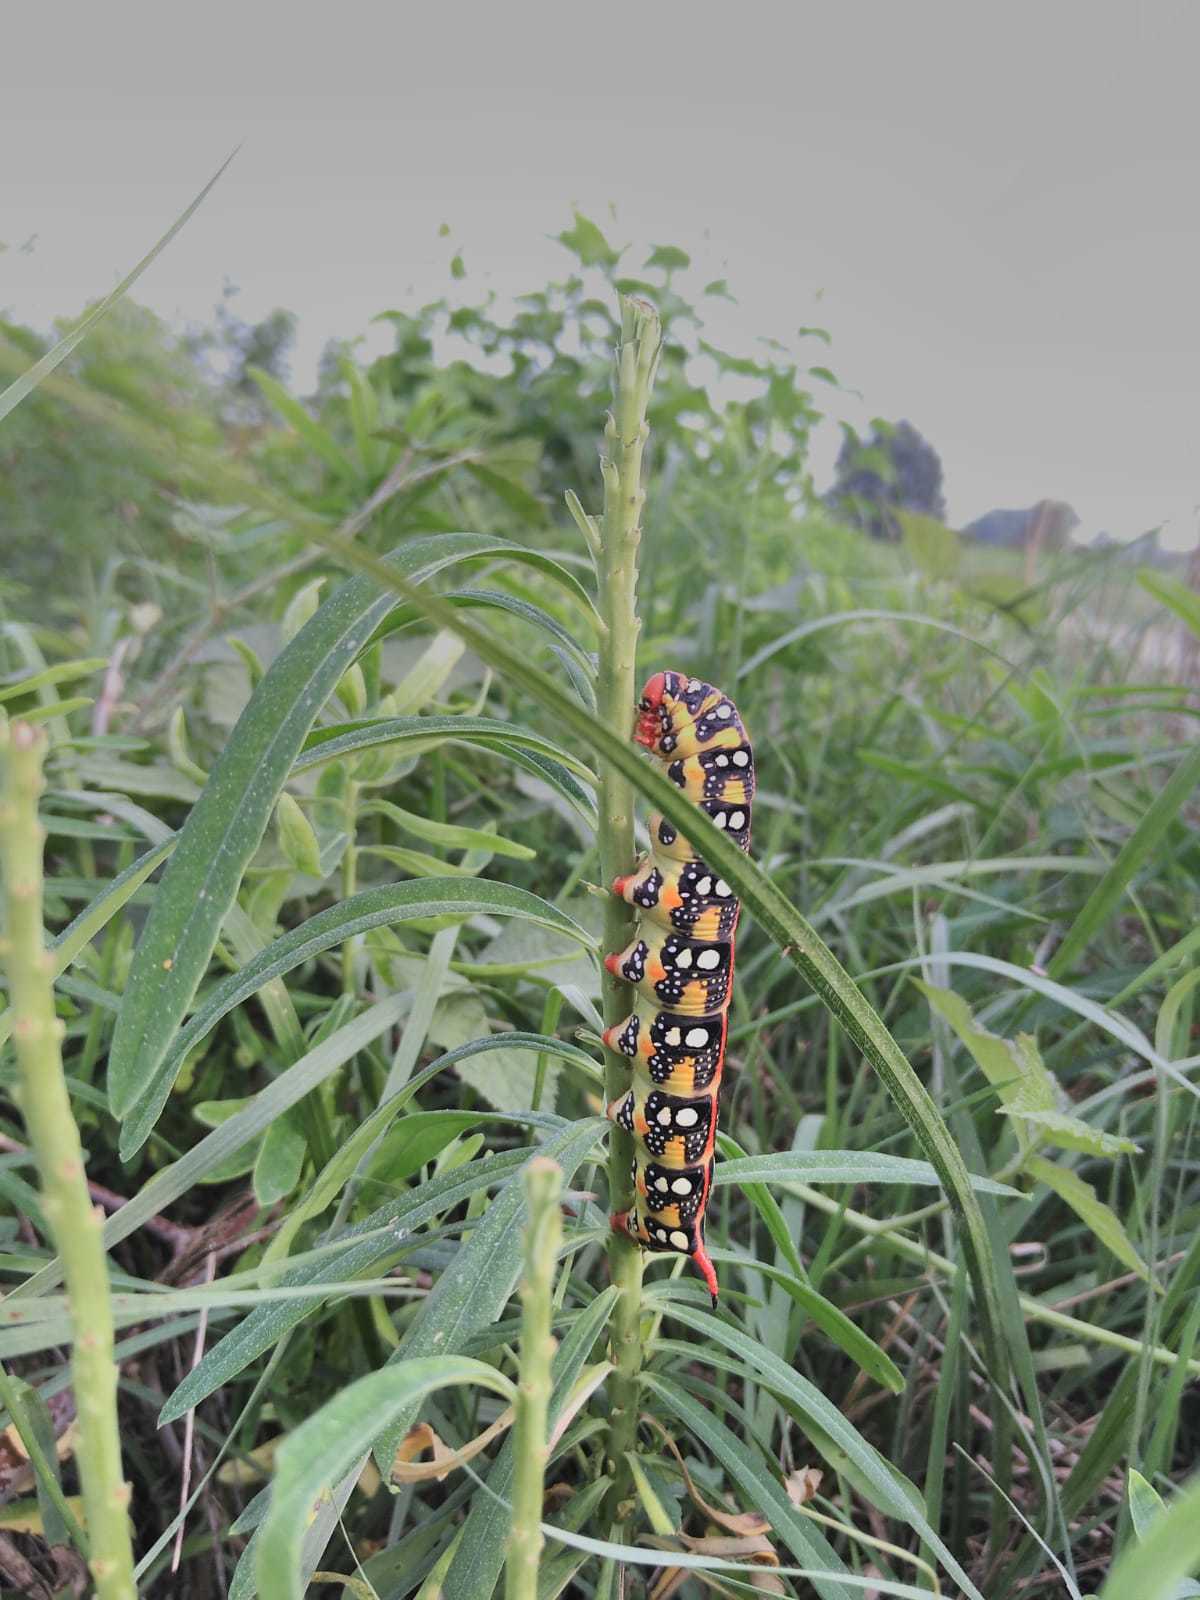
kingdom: Animalia
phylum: Arthropoda
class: Insecta
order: Lepidoptera
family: Sphingidae
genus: Hyles
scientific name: Hyles euphorbiae
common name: Spurge hawk-moth
